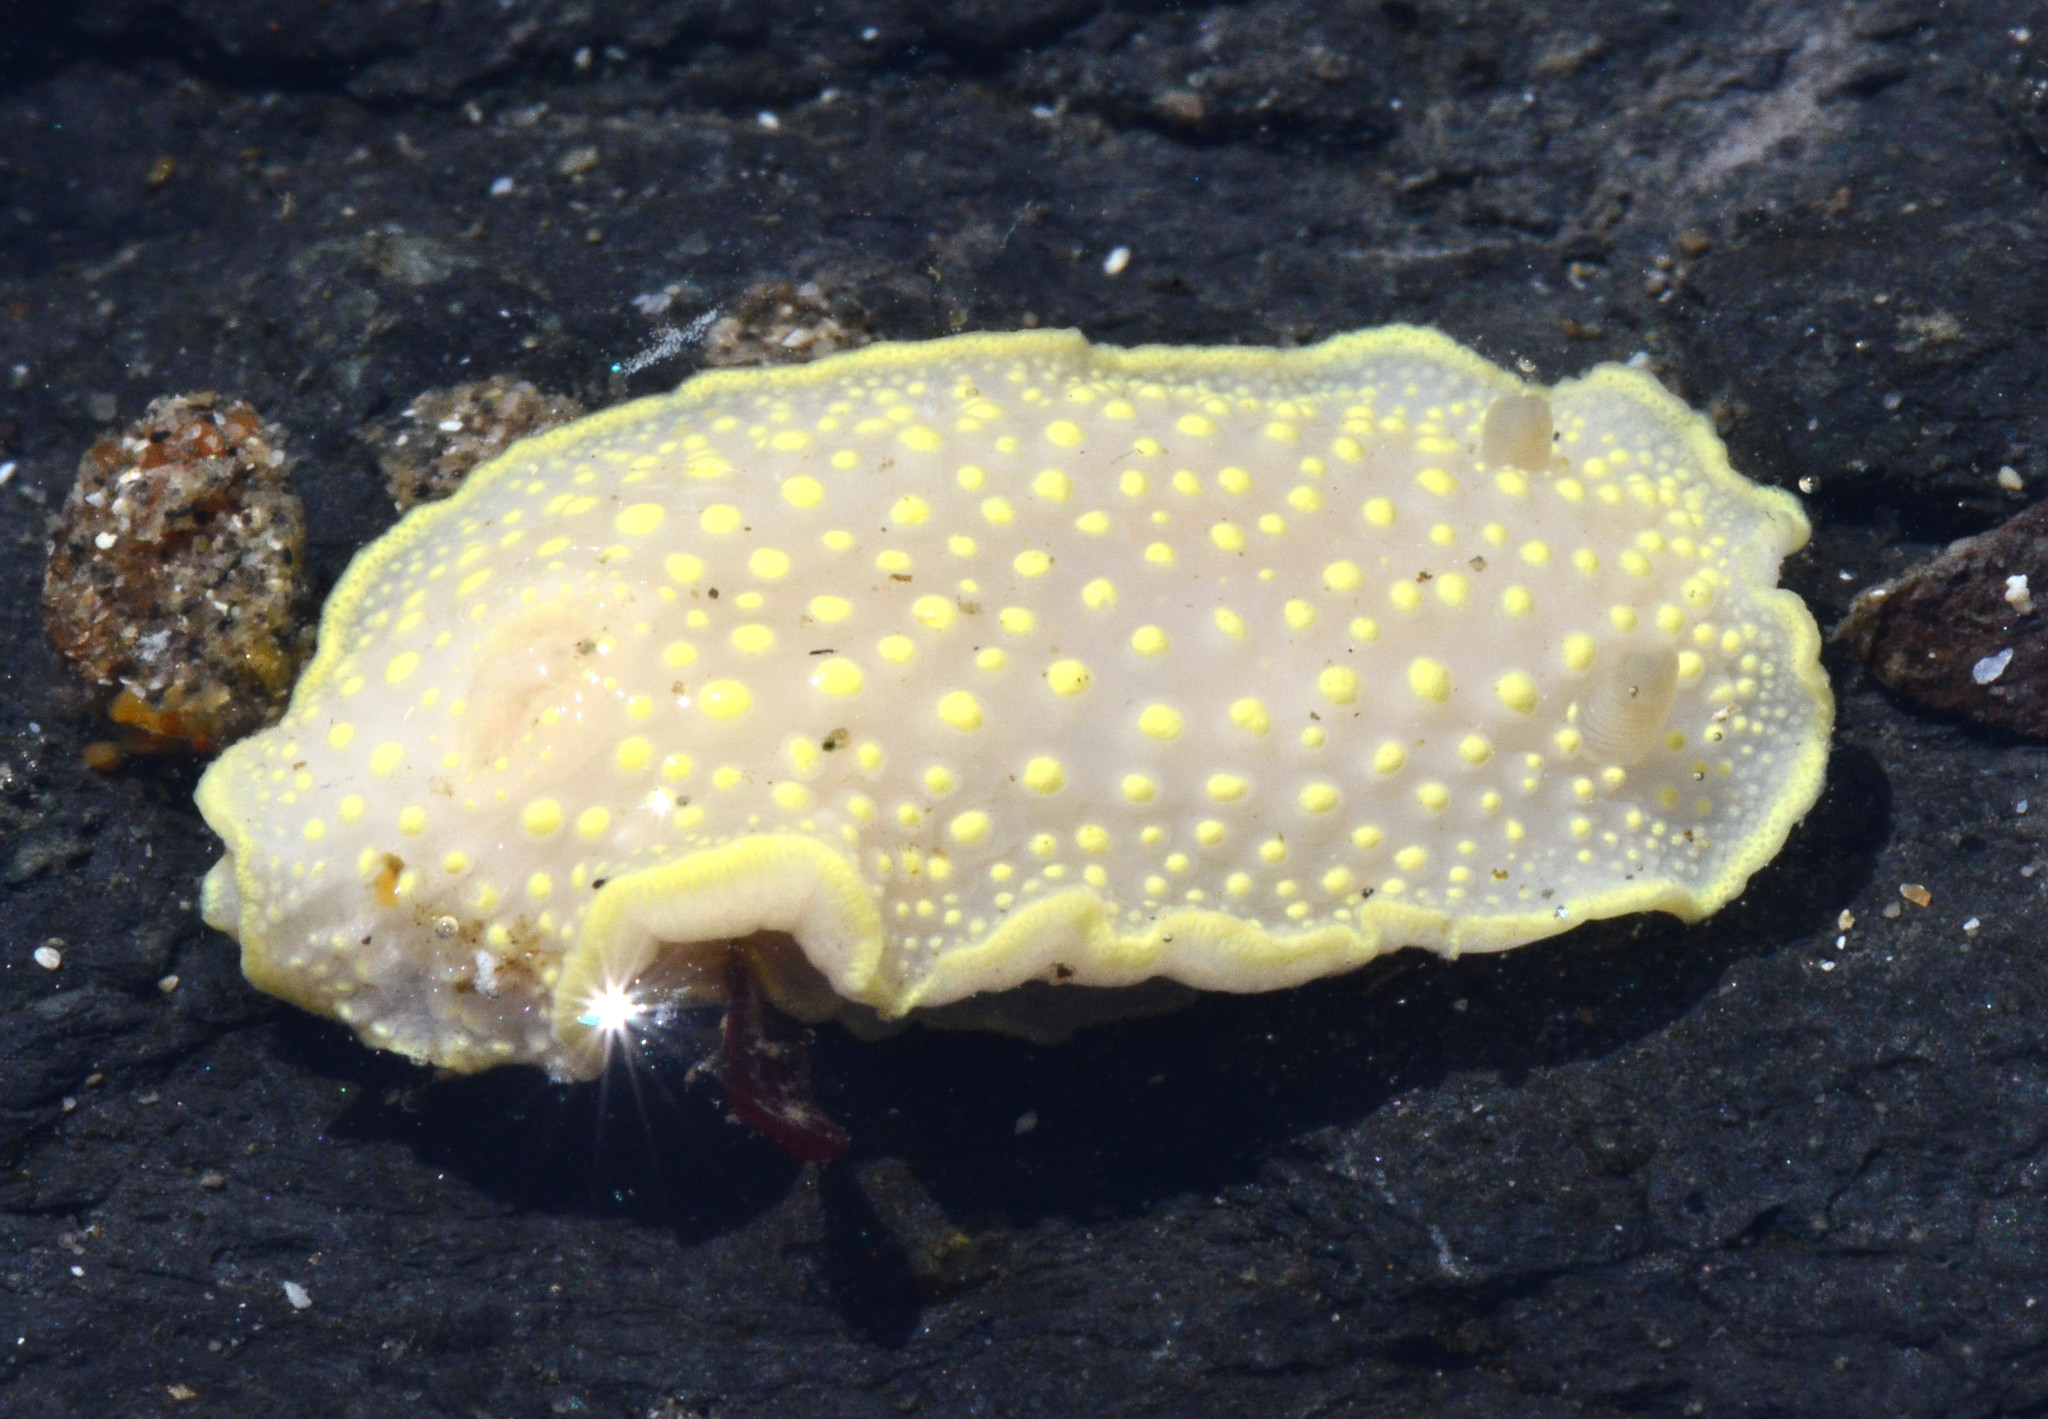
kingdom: Animalia
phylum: Mollusca
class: Gastropoda
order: Nudibranchia
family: Cadlinidae
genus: Cadlina
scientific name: Cadlina luteomarginata
